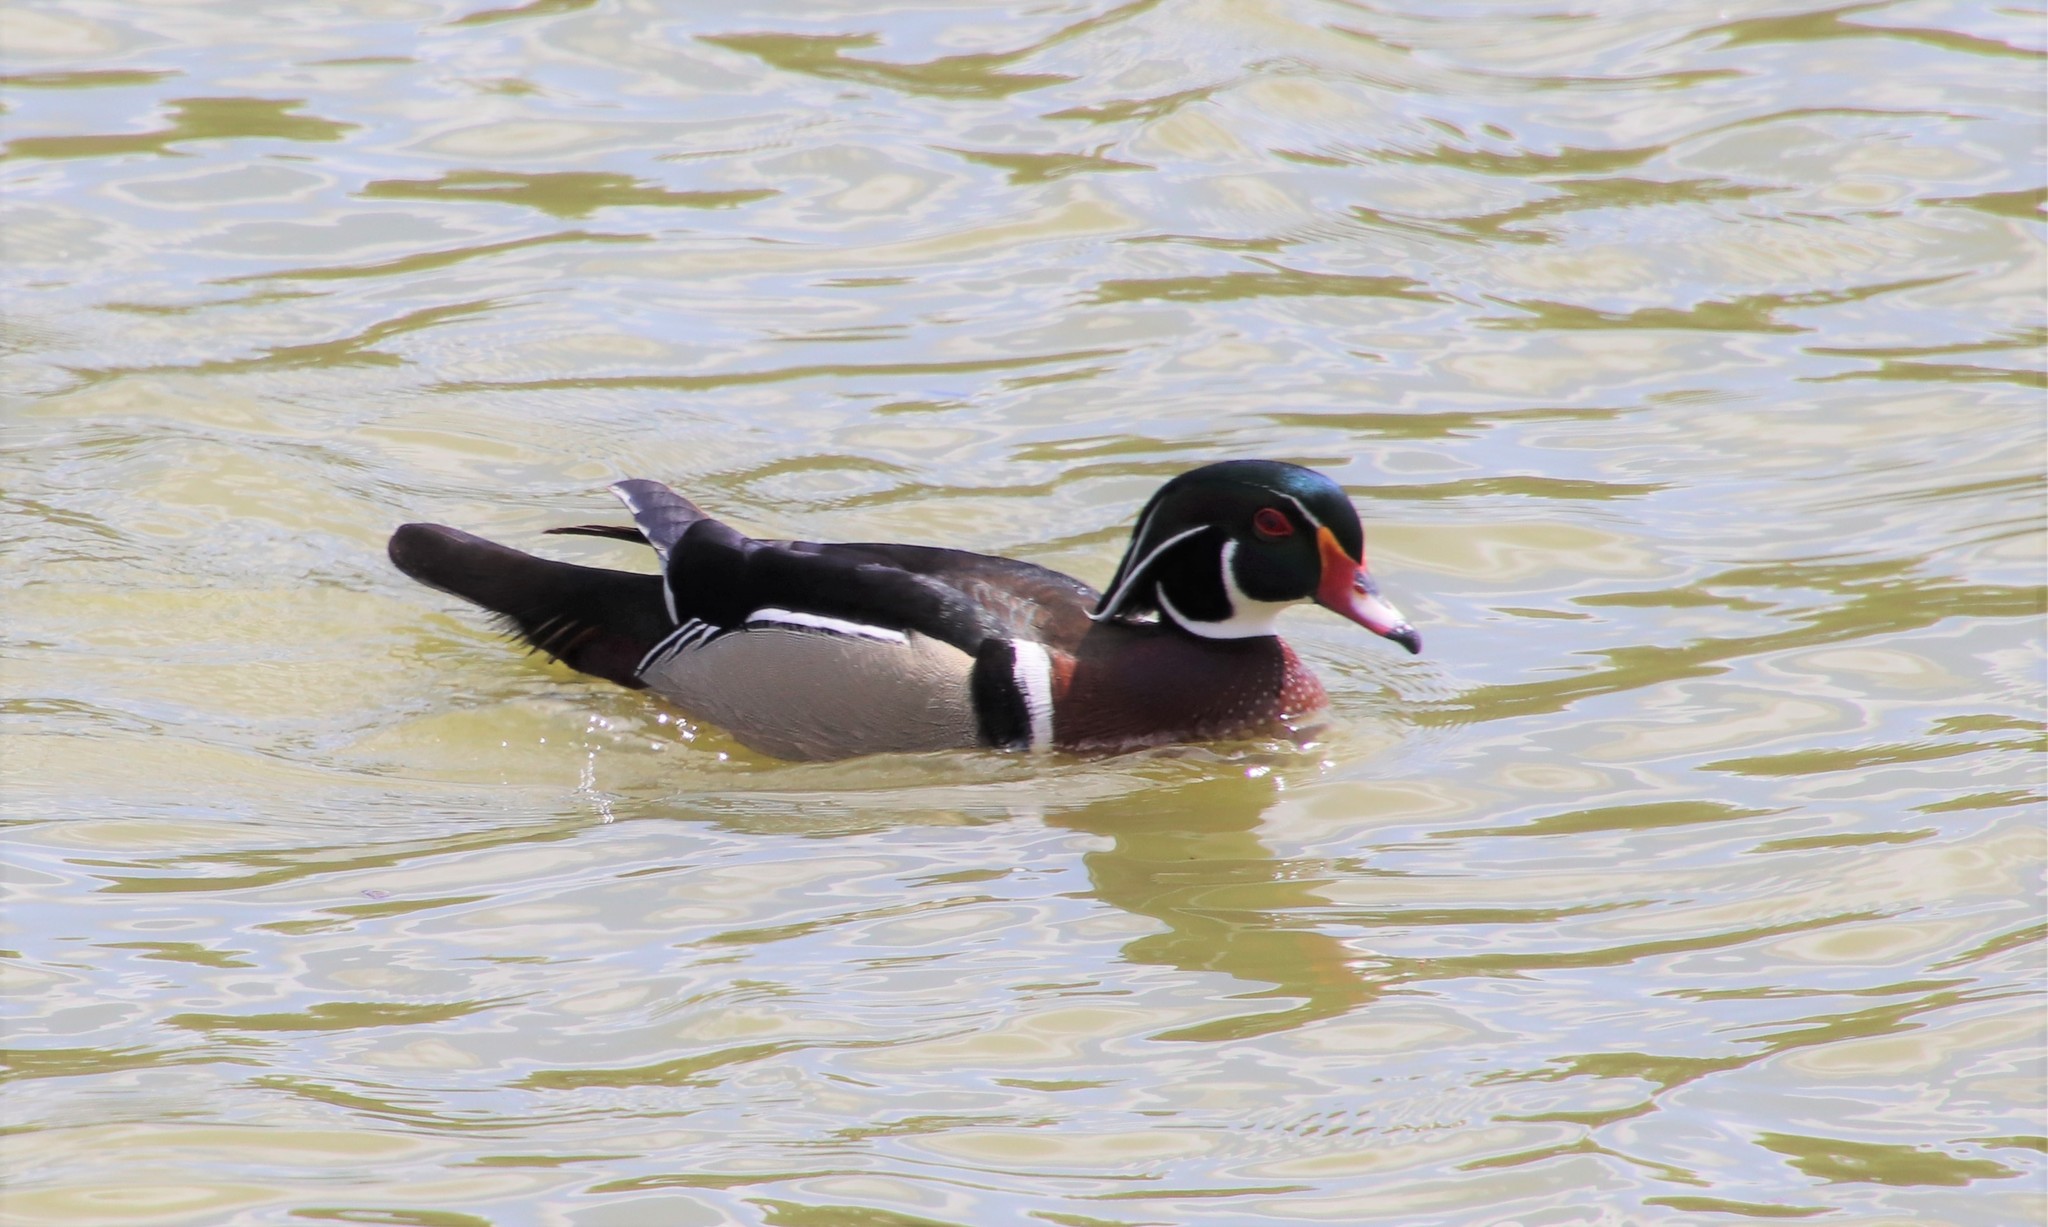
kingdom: Animalia
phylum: Chordata
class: Aves
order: Anseriformes
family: Anatidae
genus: Aix
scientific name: Aix sponsa
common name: Wood duck
